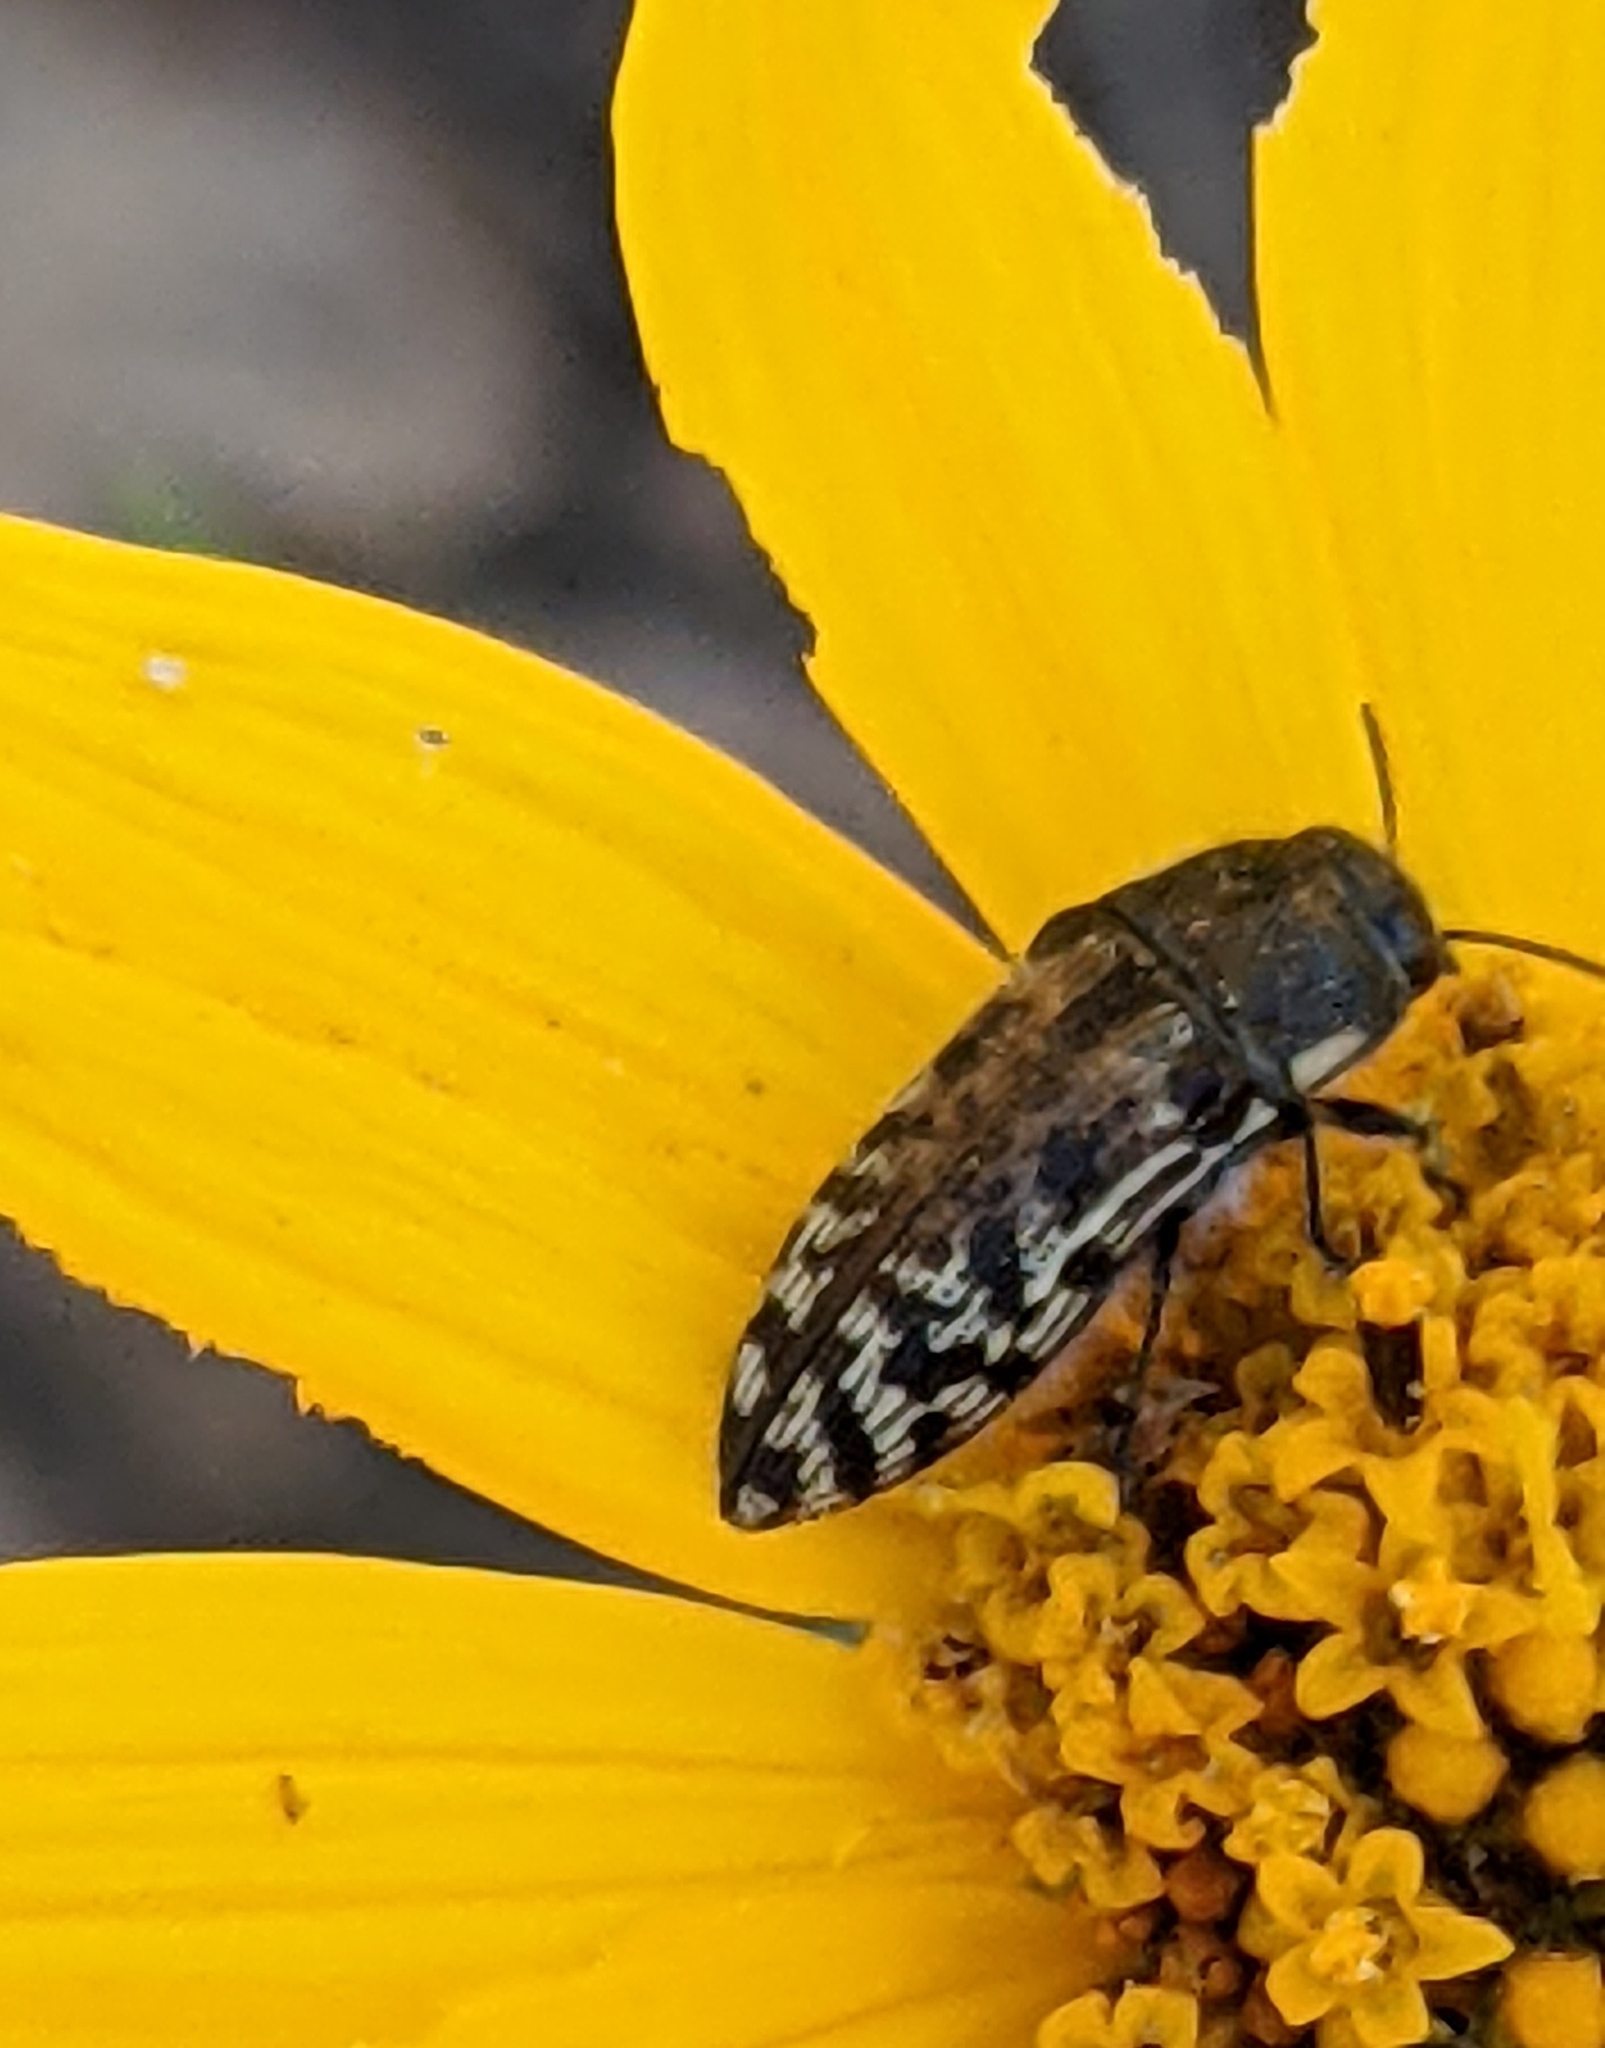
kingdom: Animalia
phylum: Arthropoda
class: Insecta
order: Coleoptera
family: Buprestidae
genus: Acmaeodera
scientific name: Acmaeodera mixta
